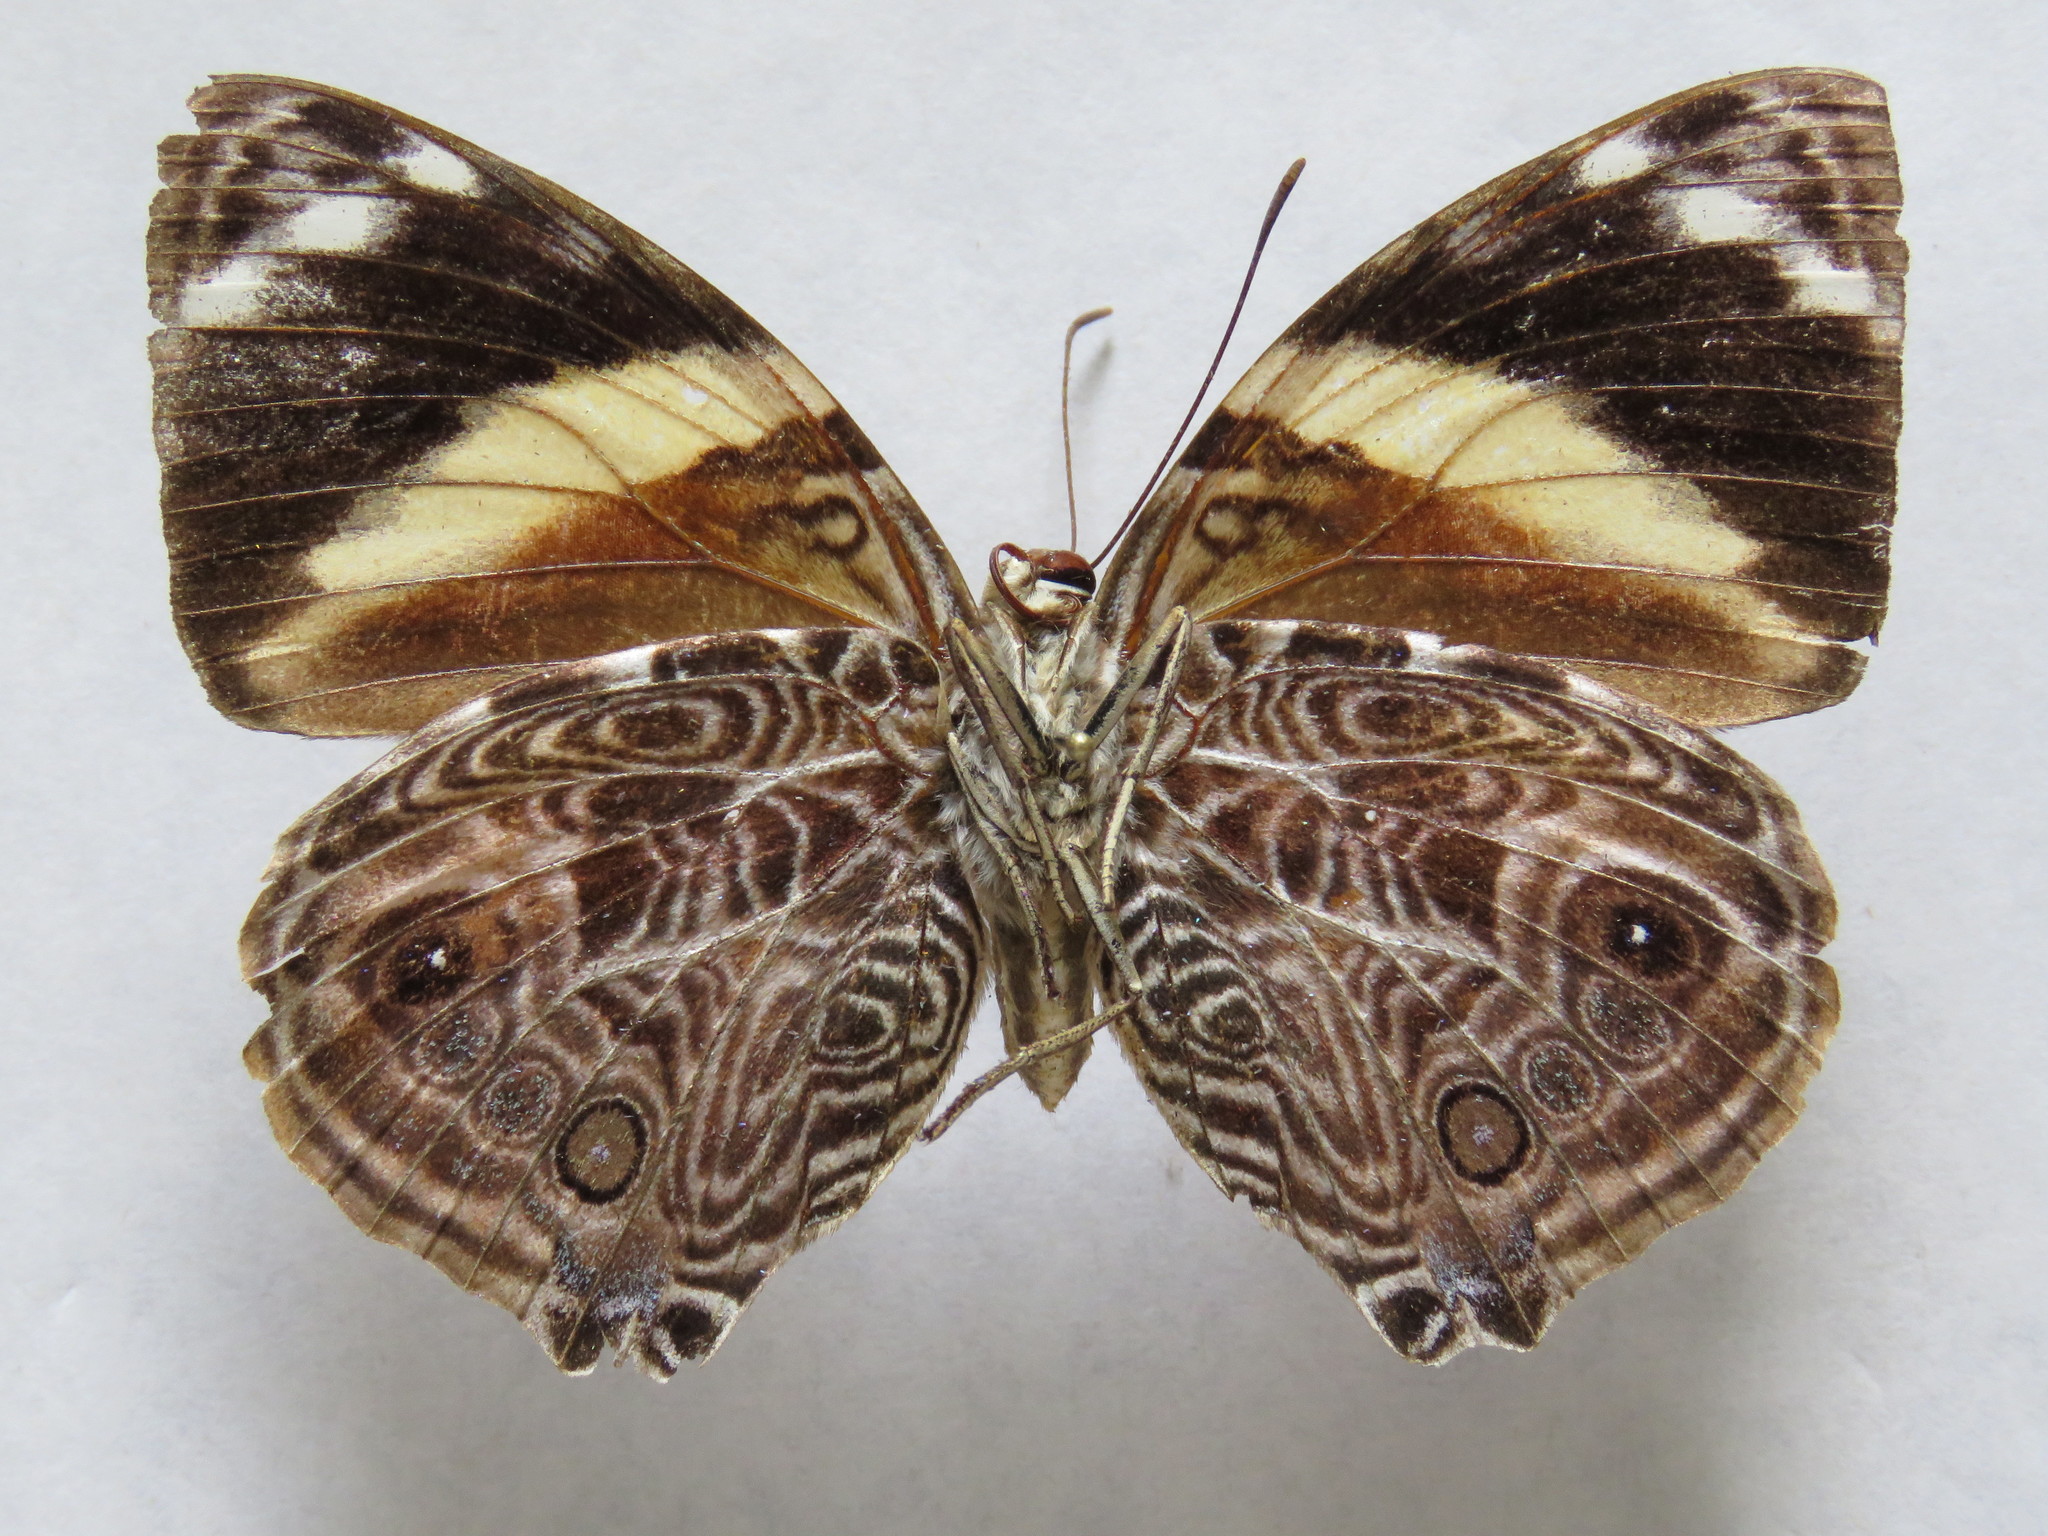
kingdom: Animalia
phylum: Arthropoda
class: Insecta
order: Lepidoptera
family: Nymphalidae
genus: Smyrna
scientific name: Smyrna blomfildia
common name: Blomfild's beauty
